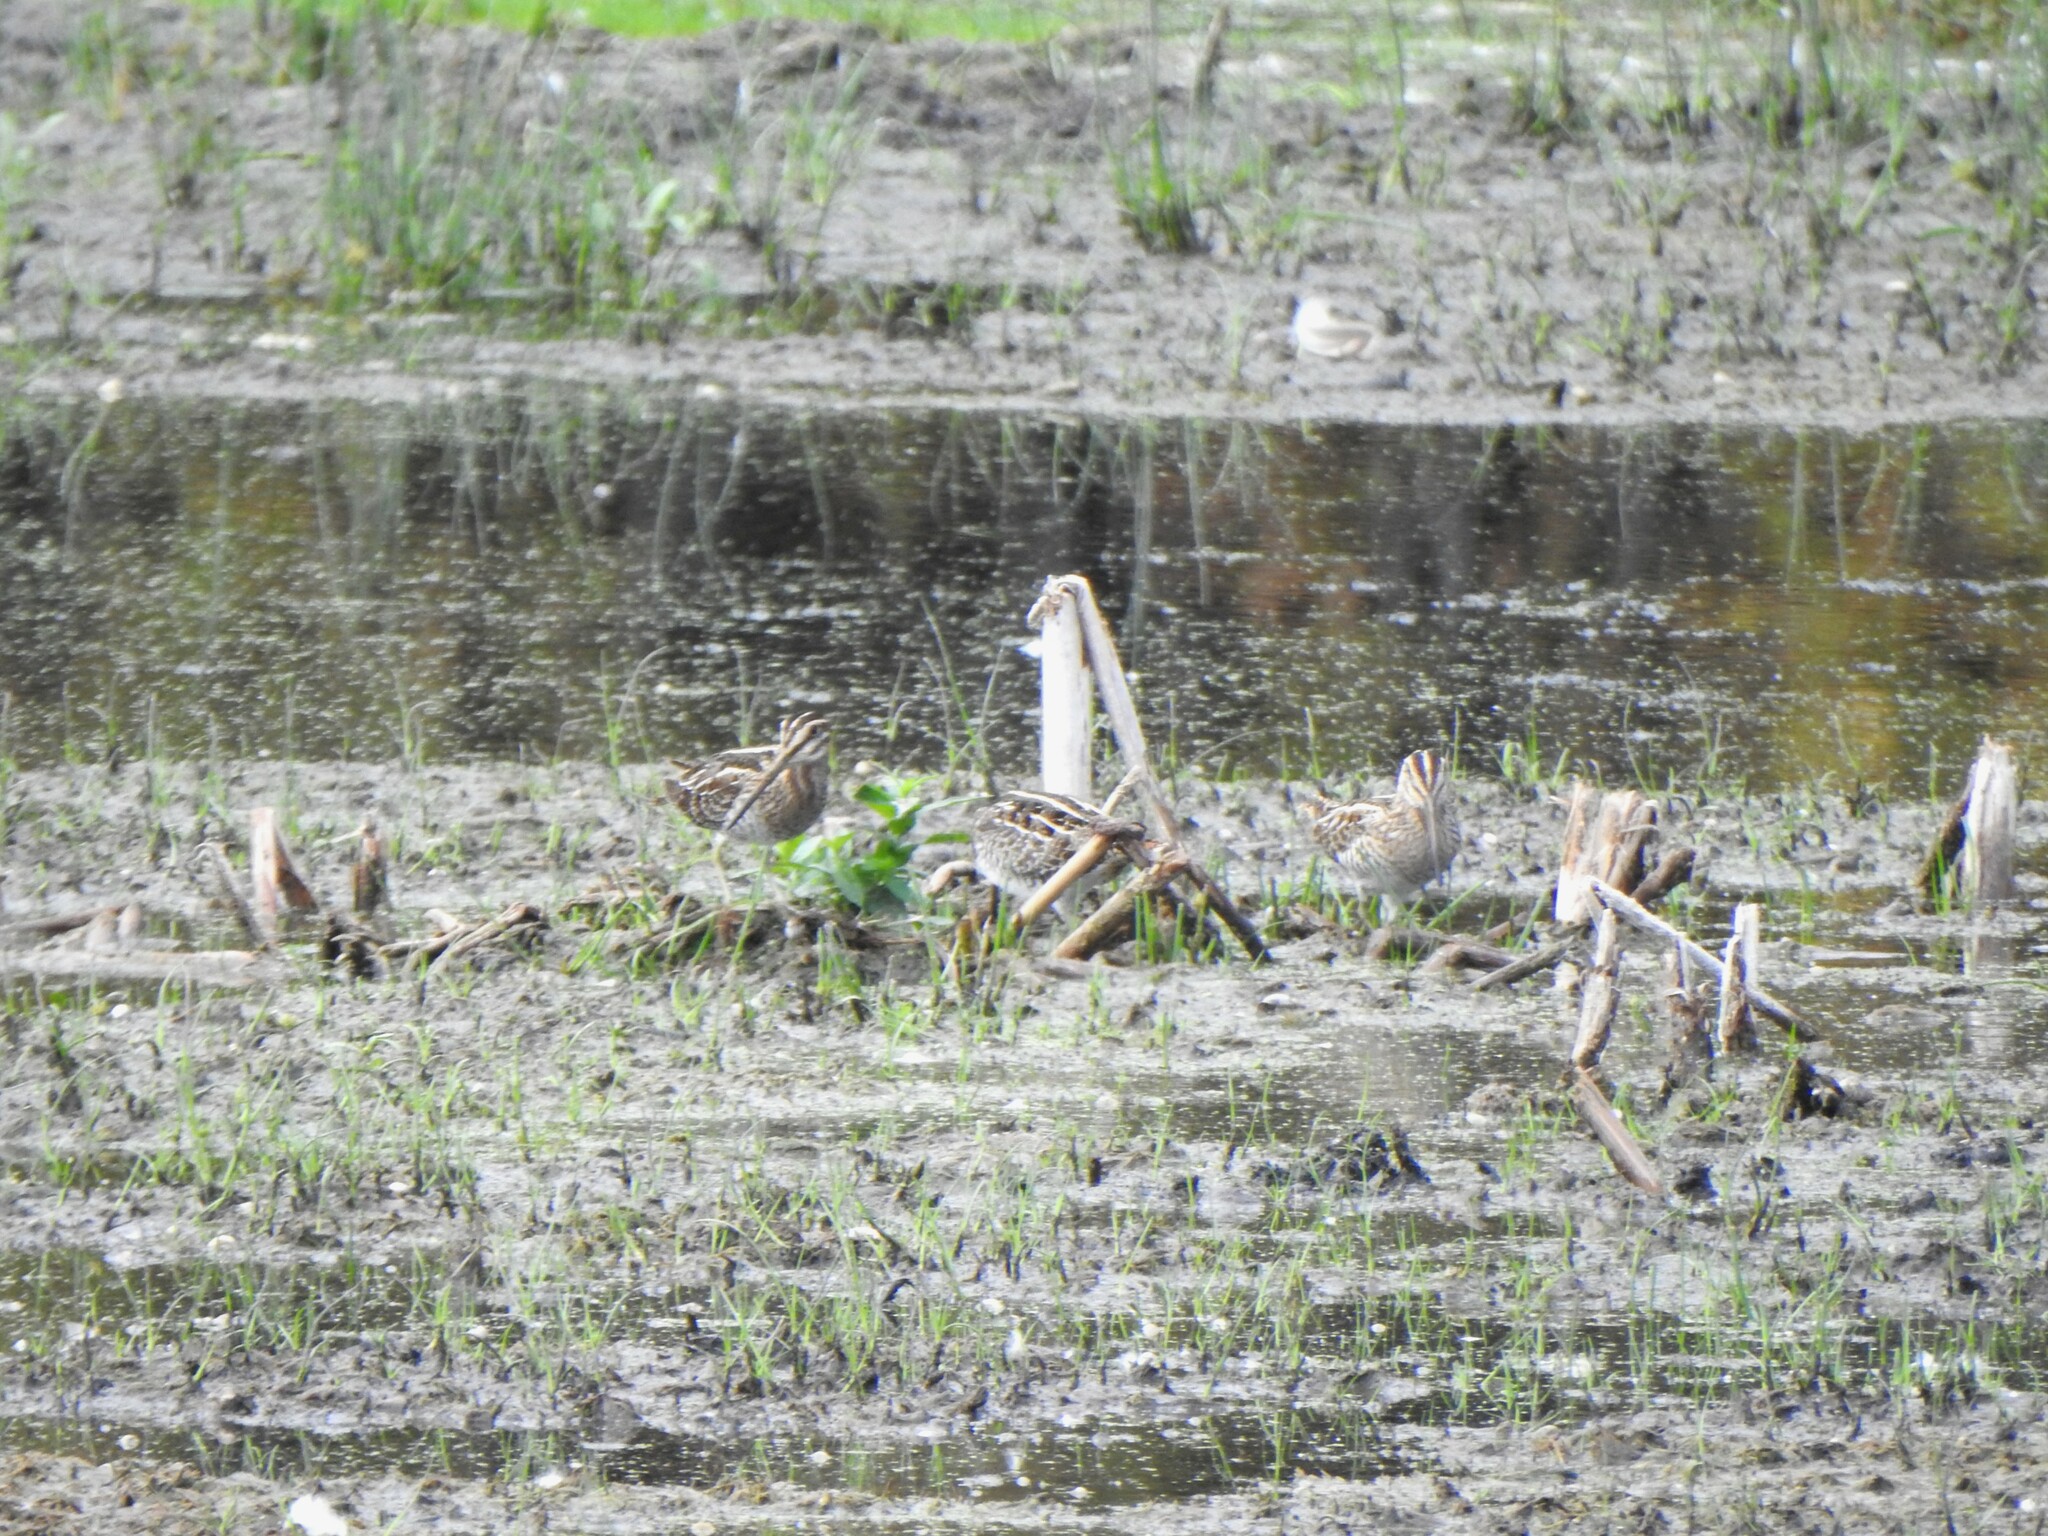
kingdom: Animalia
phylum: Chordata
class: Aves
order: Charadriiformes
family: Scolopacidae
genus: Gallinago
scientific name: Gallinago delicata
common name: Wilson's snipe
